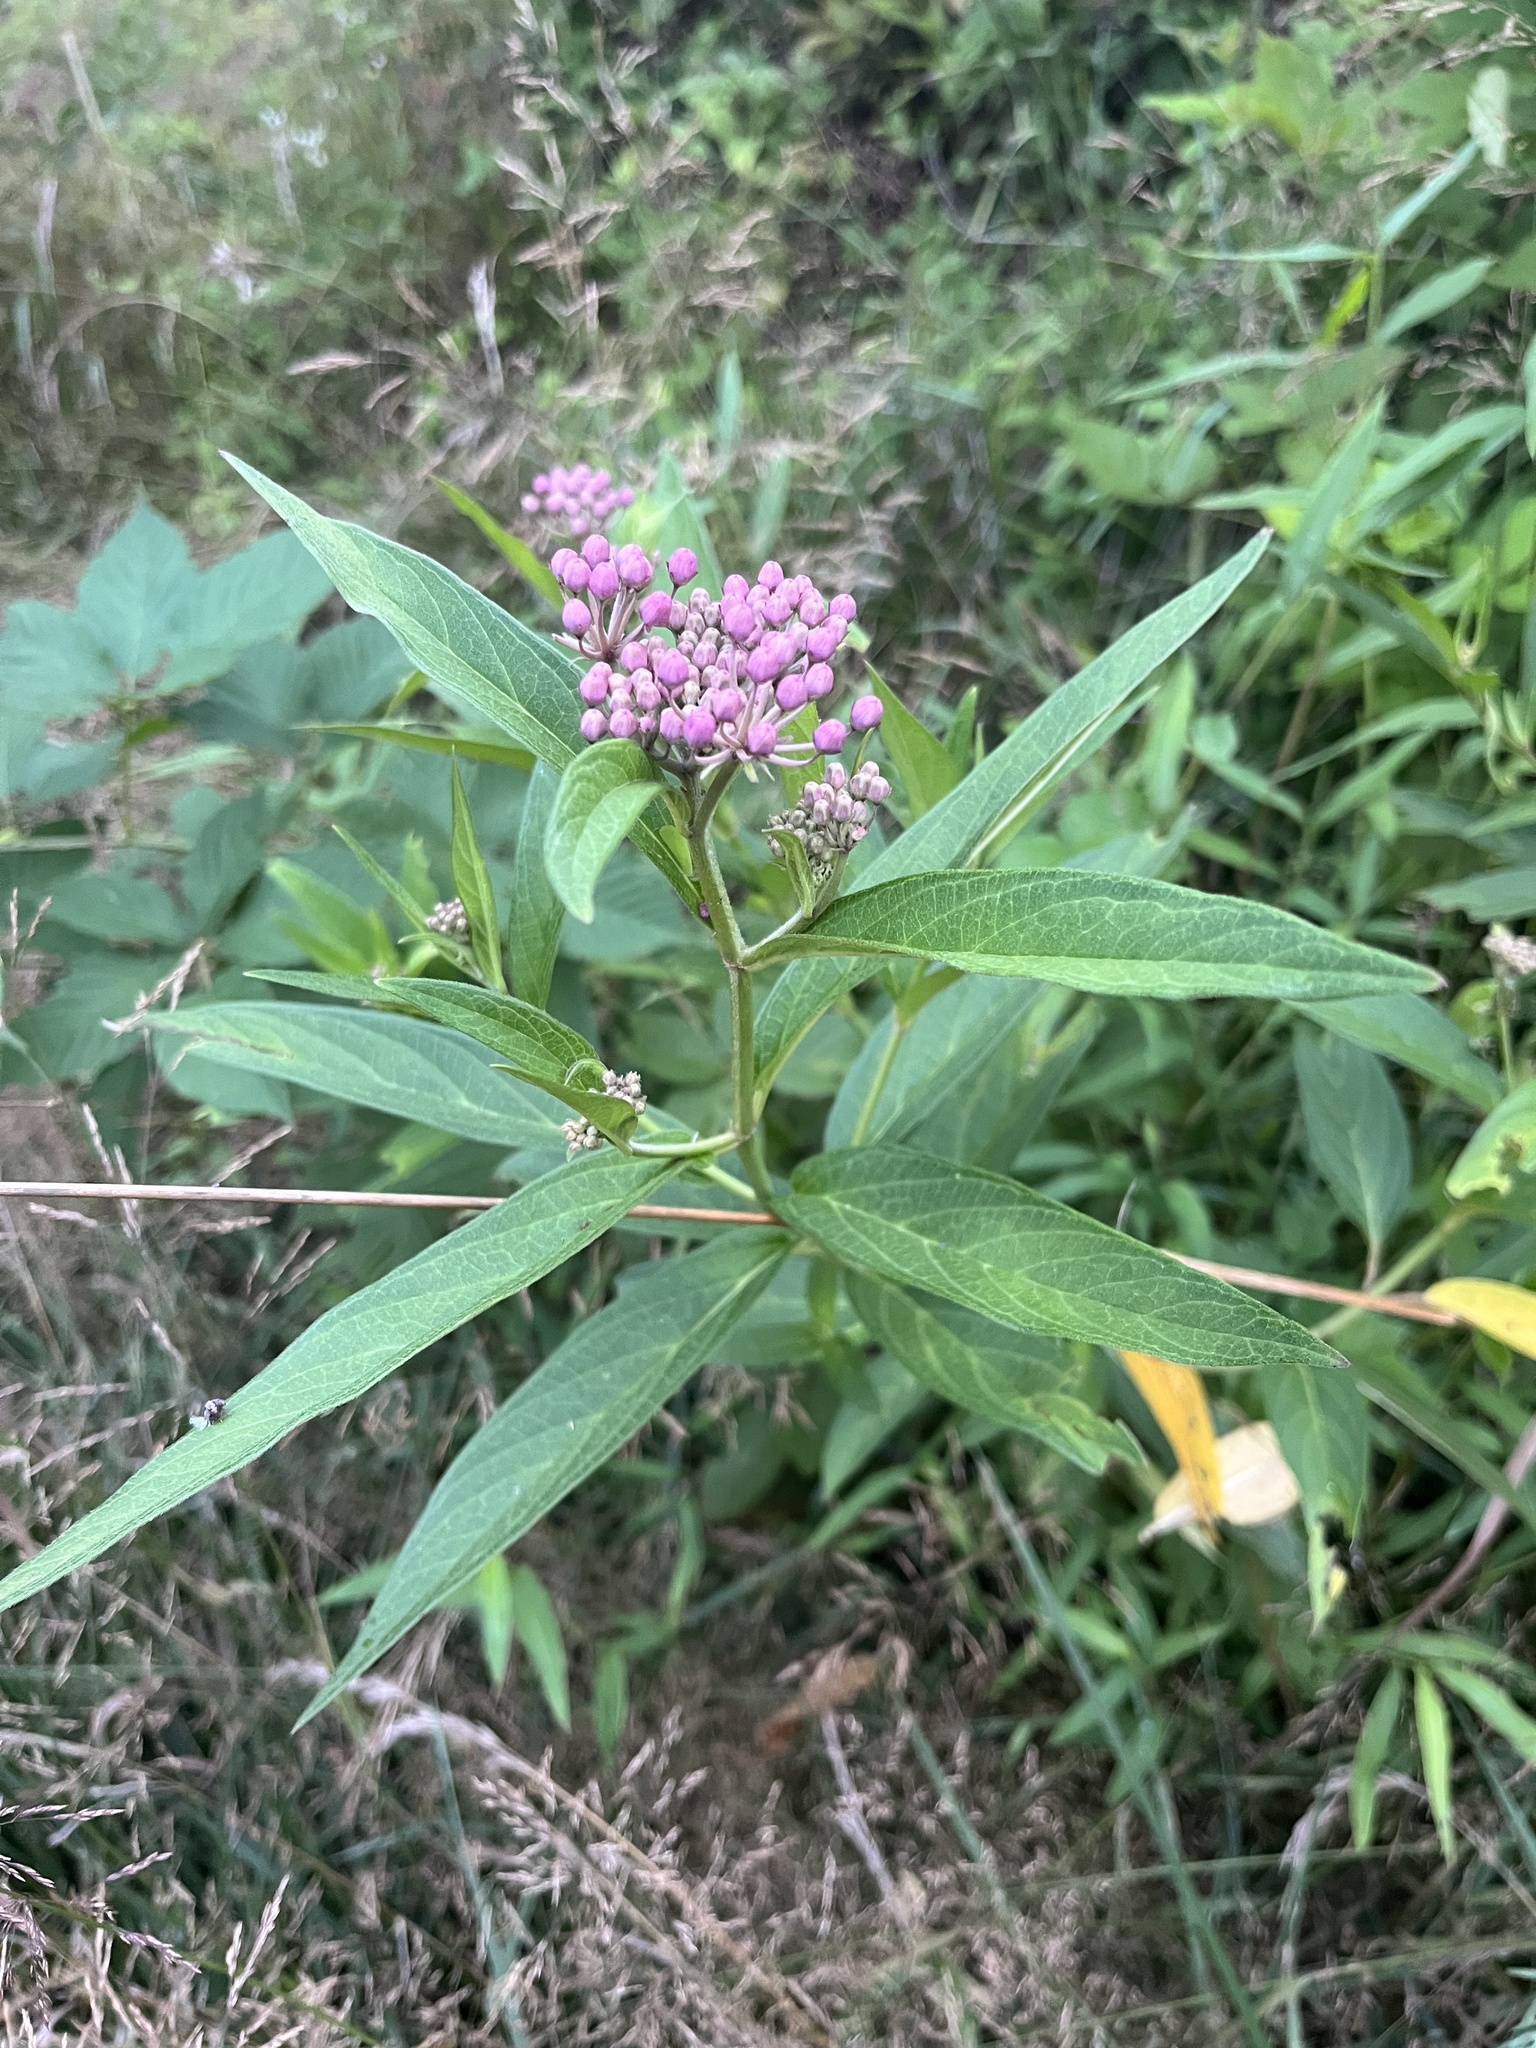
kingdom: Plantae
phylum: Tracheophyta
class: Magnoliopsida
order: Gentianales
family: Apocynaceae
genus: Asclepias
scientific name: Asclepias incarnata
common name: Swamp milkweed
